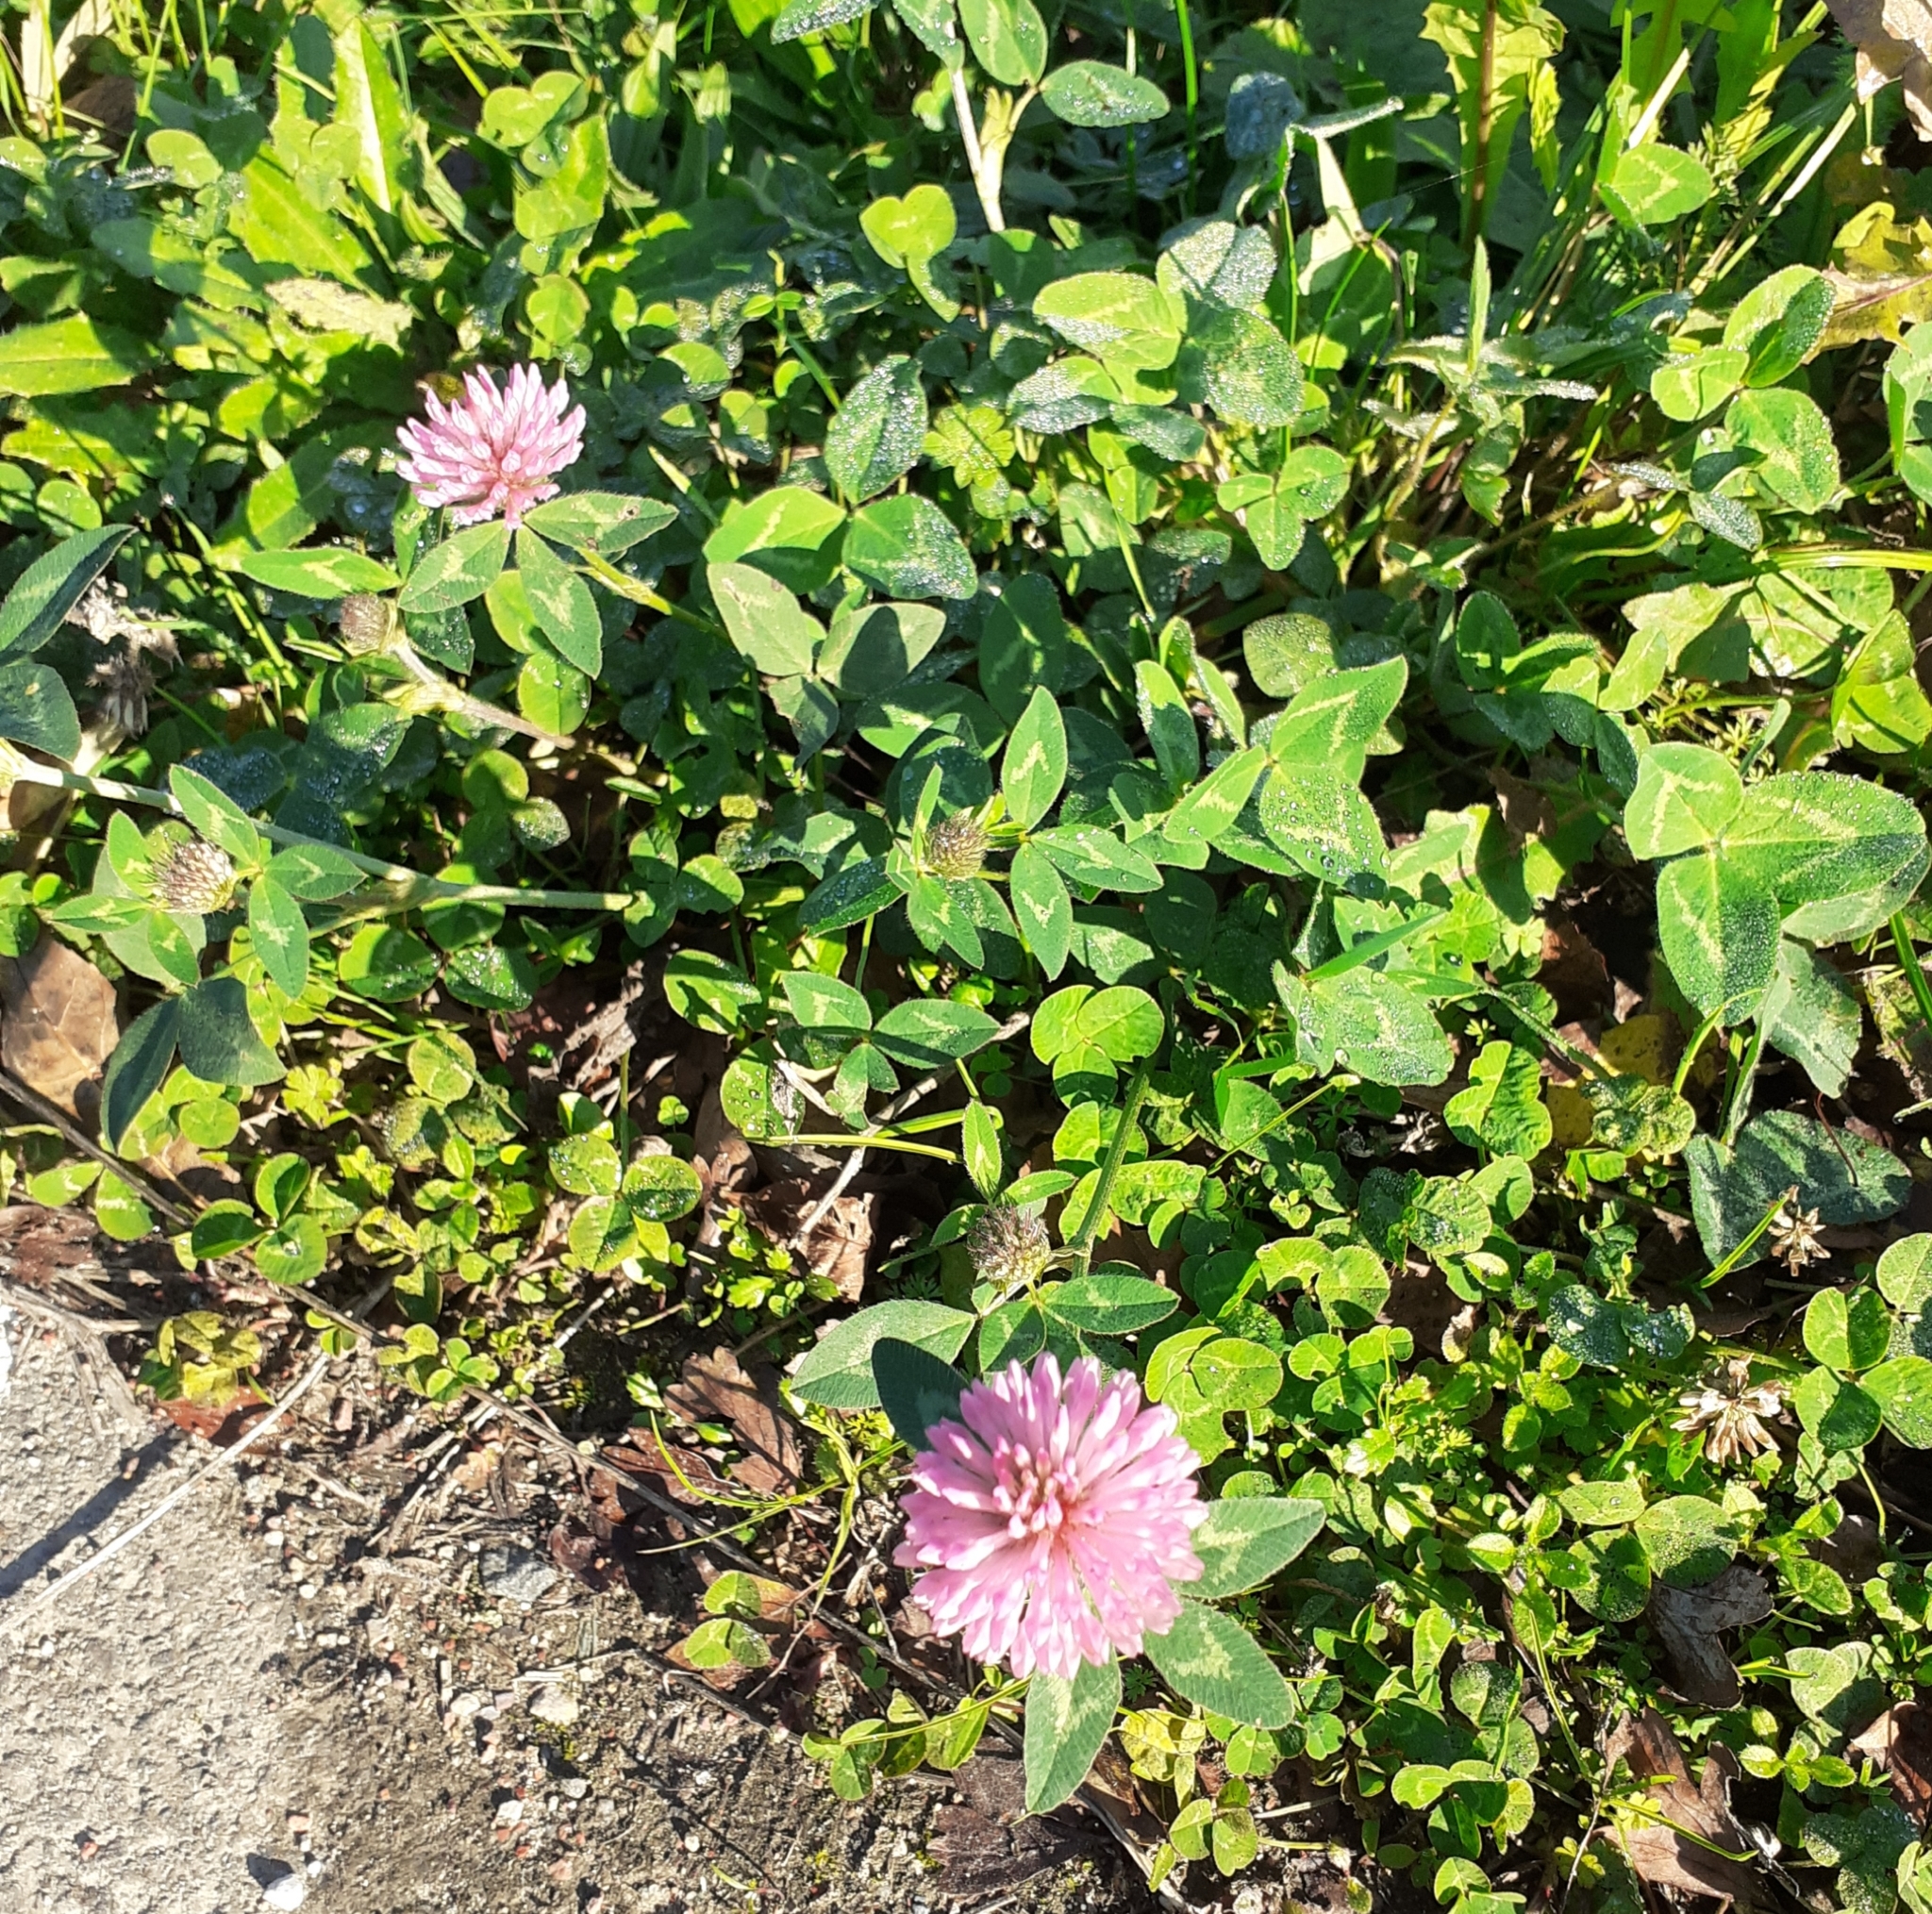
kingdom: Plantae
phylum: Tracheophyta
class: Magnoliopsida
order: Fabales
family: Fabaceae
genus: Trifolium
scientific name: Trifolium pratense
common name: Red clover
